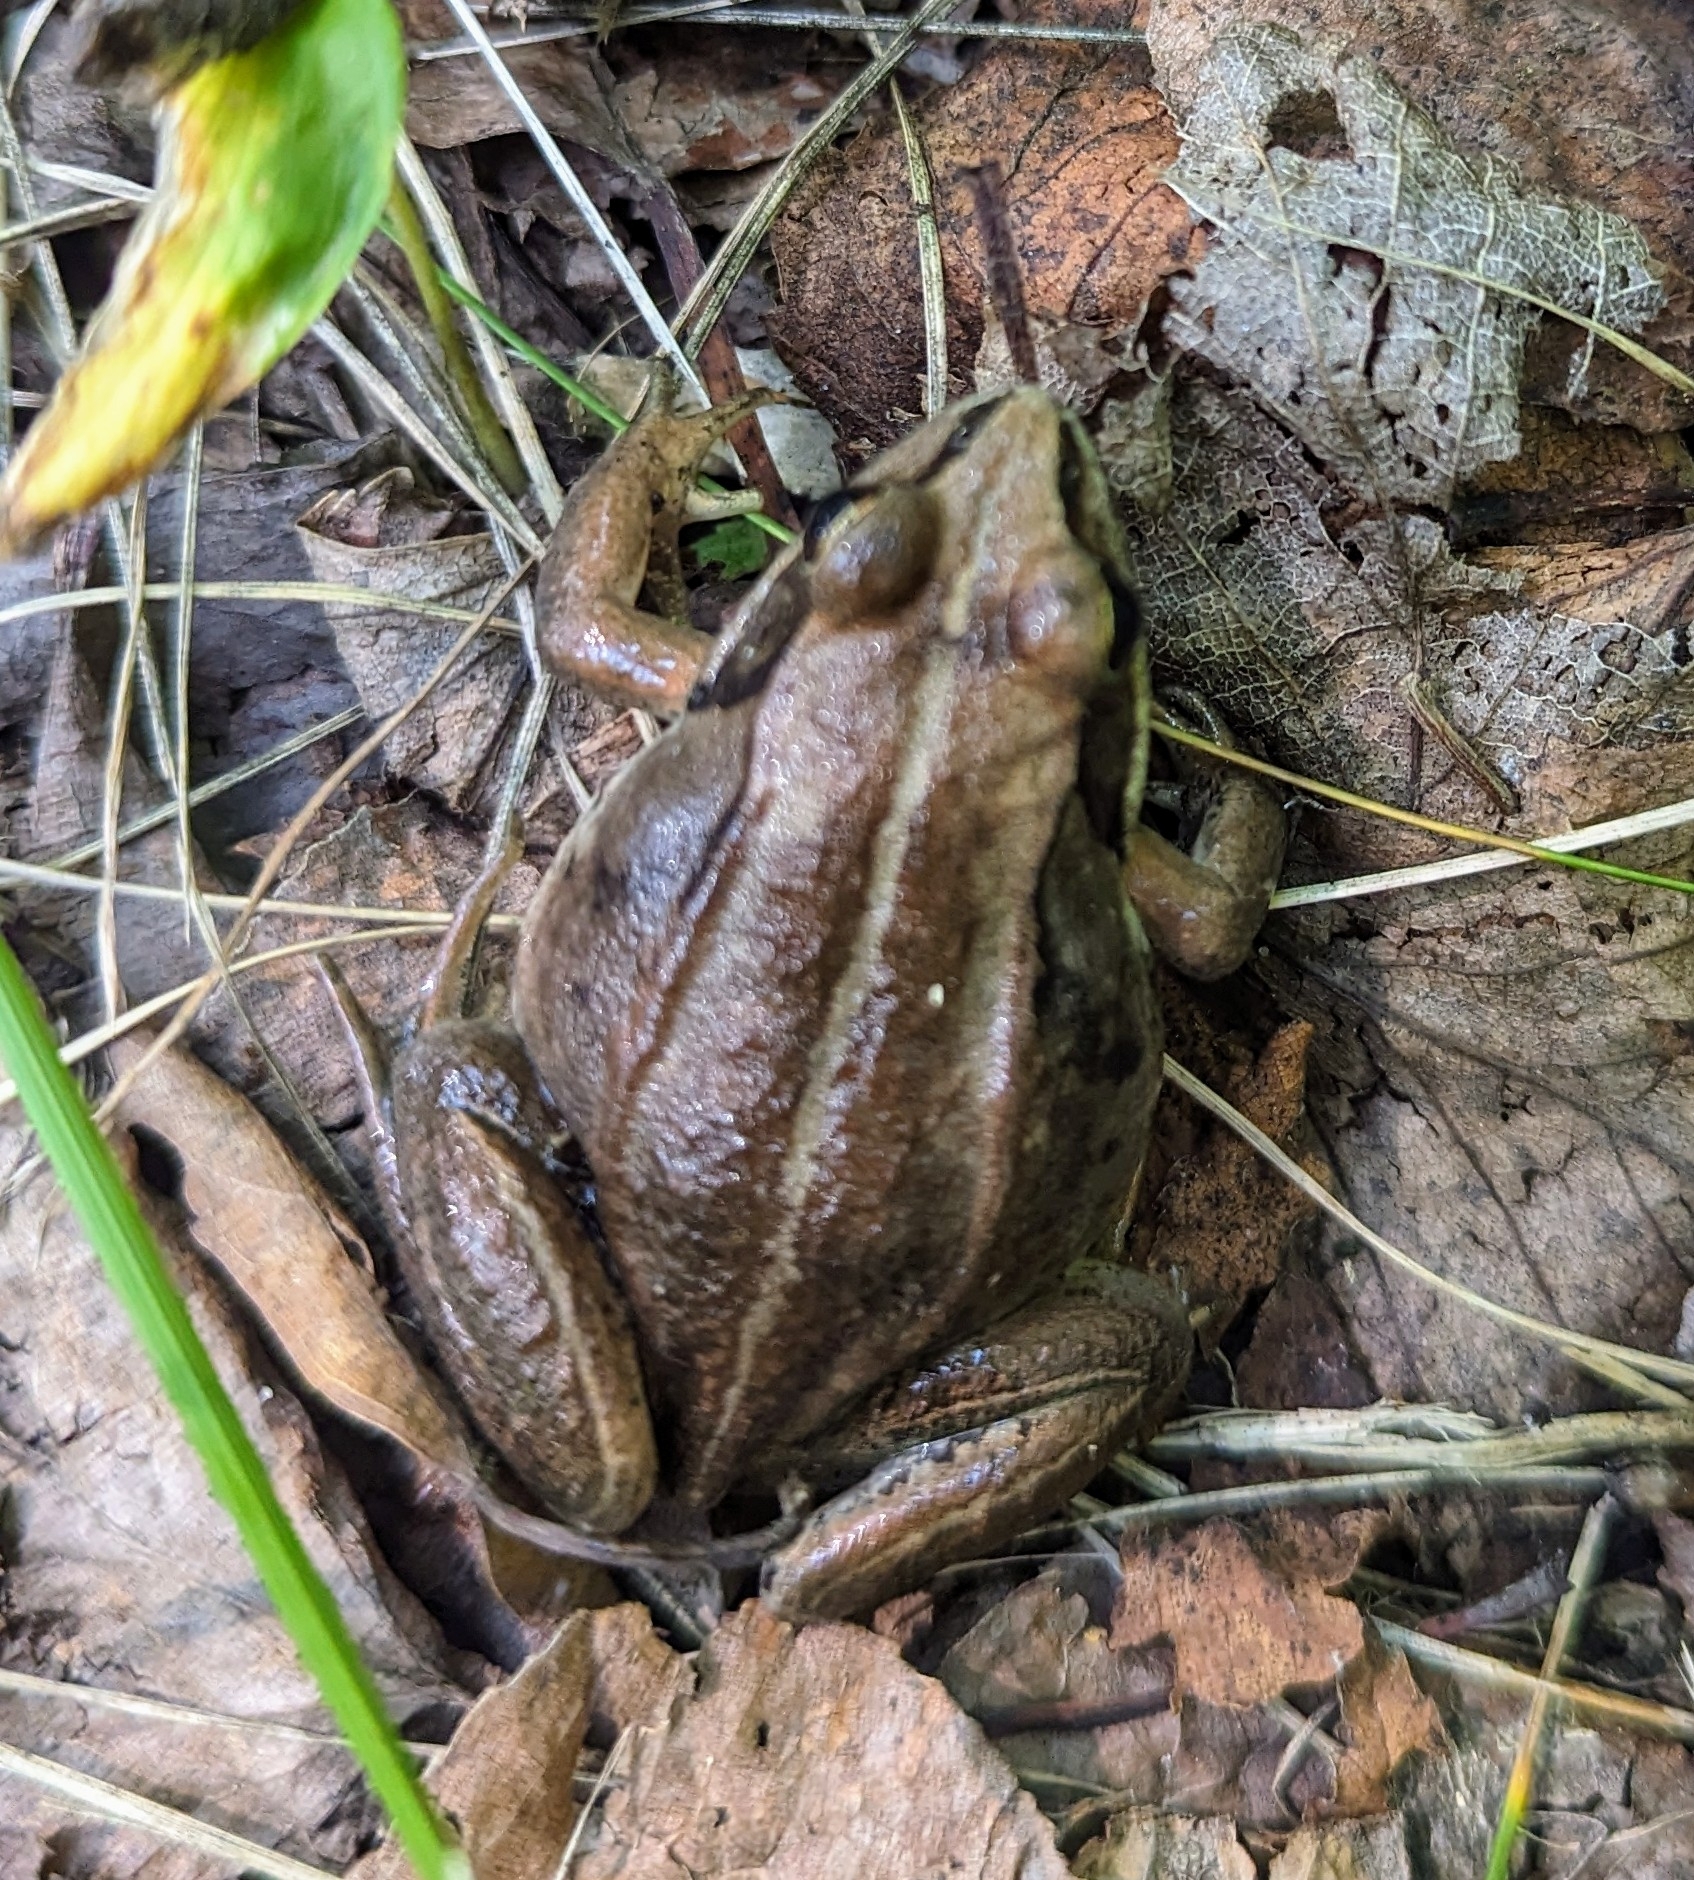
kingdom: Animalia
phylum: Chordata
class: Amphibia
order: Anura
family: Ranidae
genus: Lithobates
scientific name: Lithobates sylvaticus
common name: Wood frog
